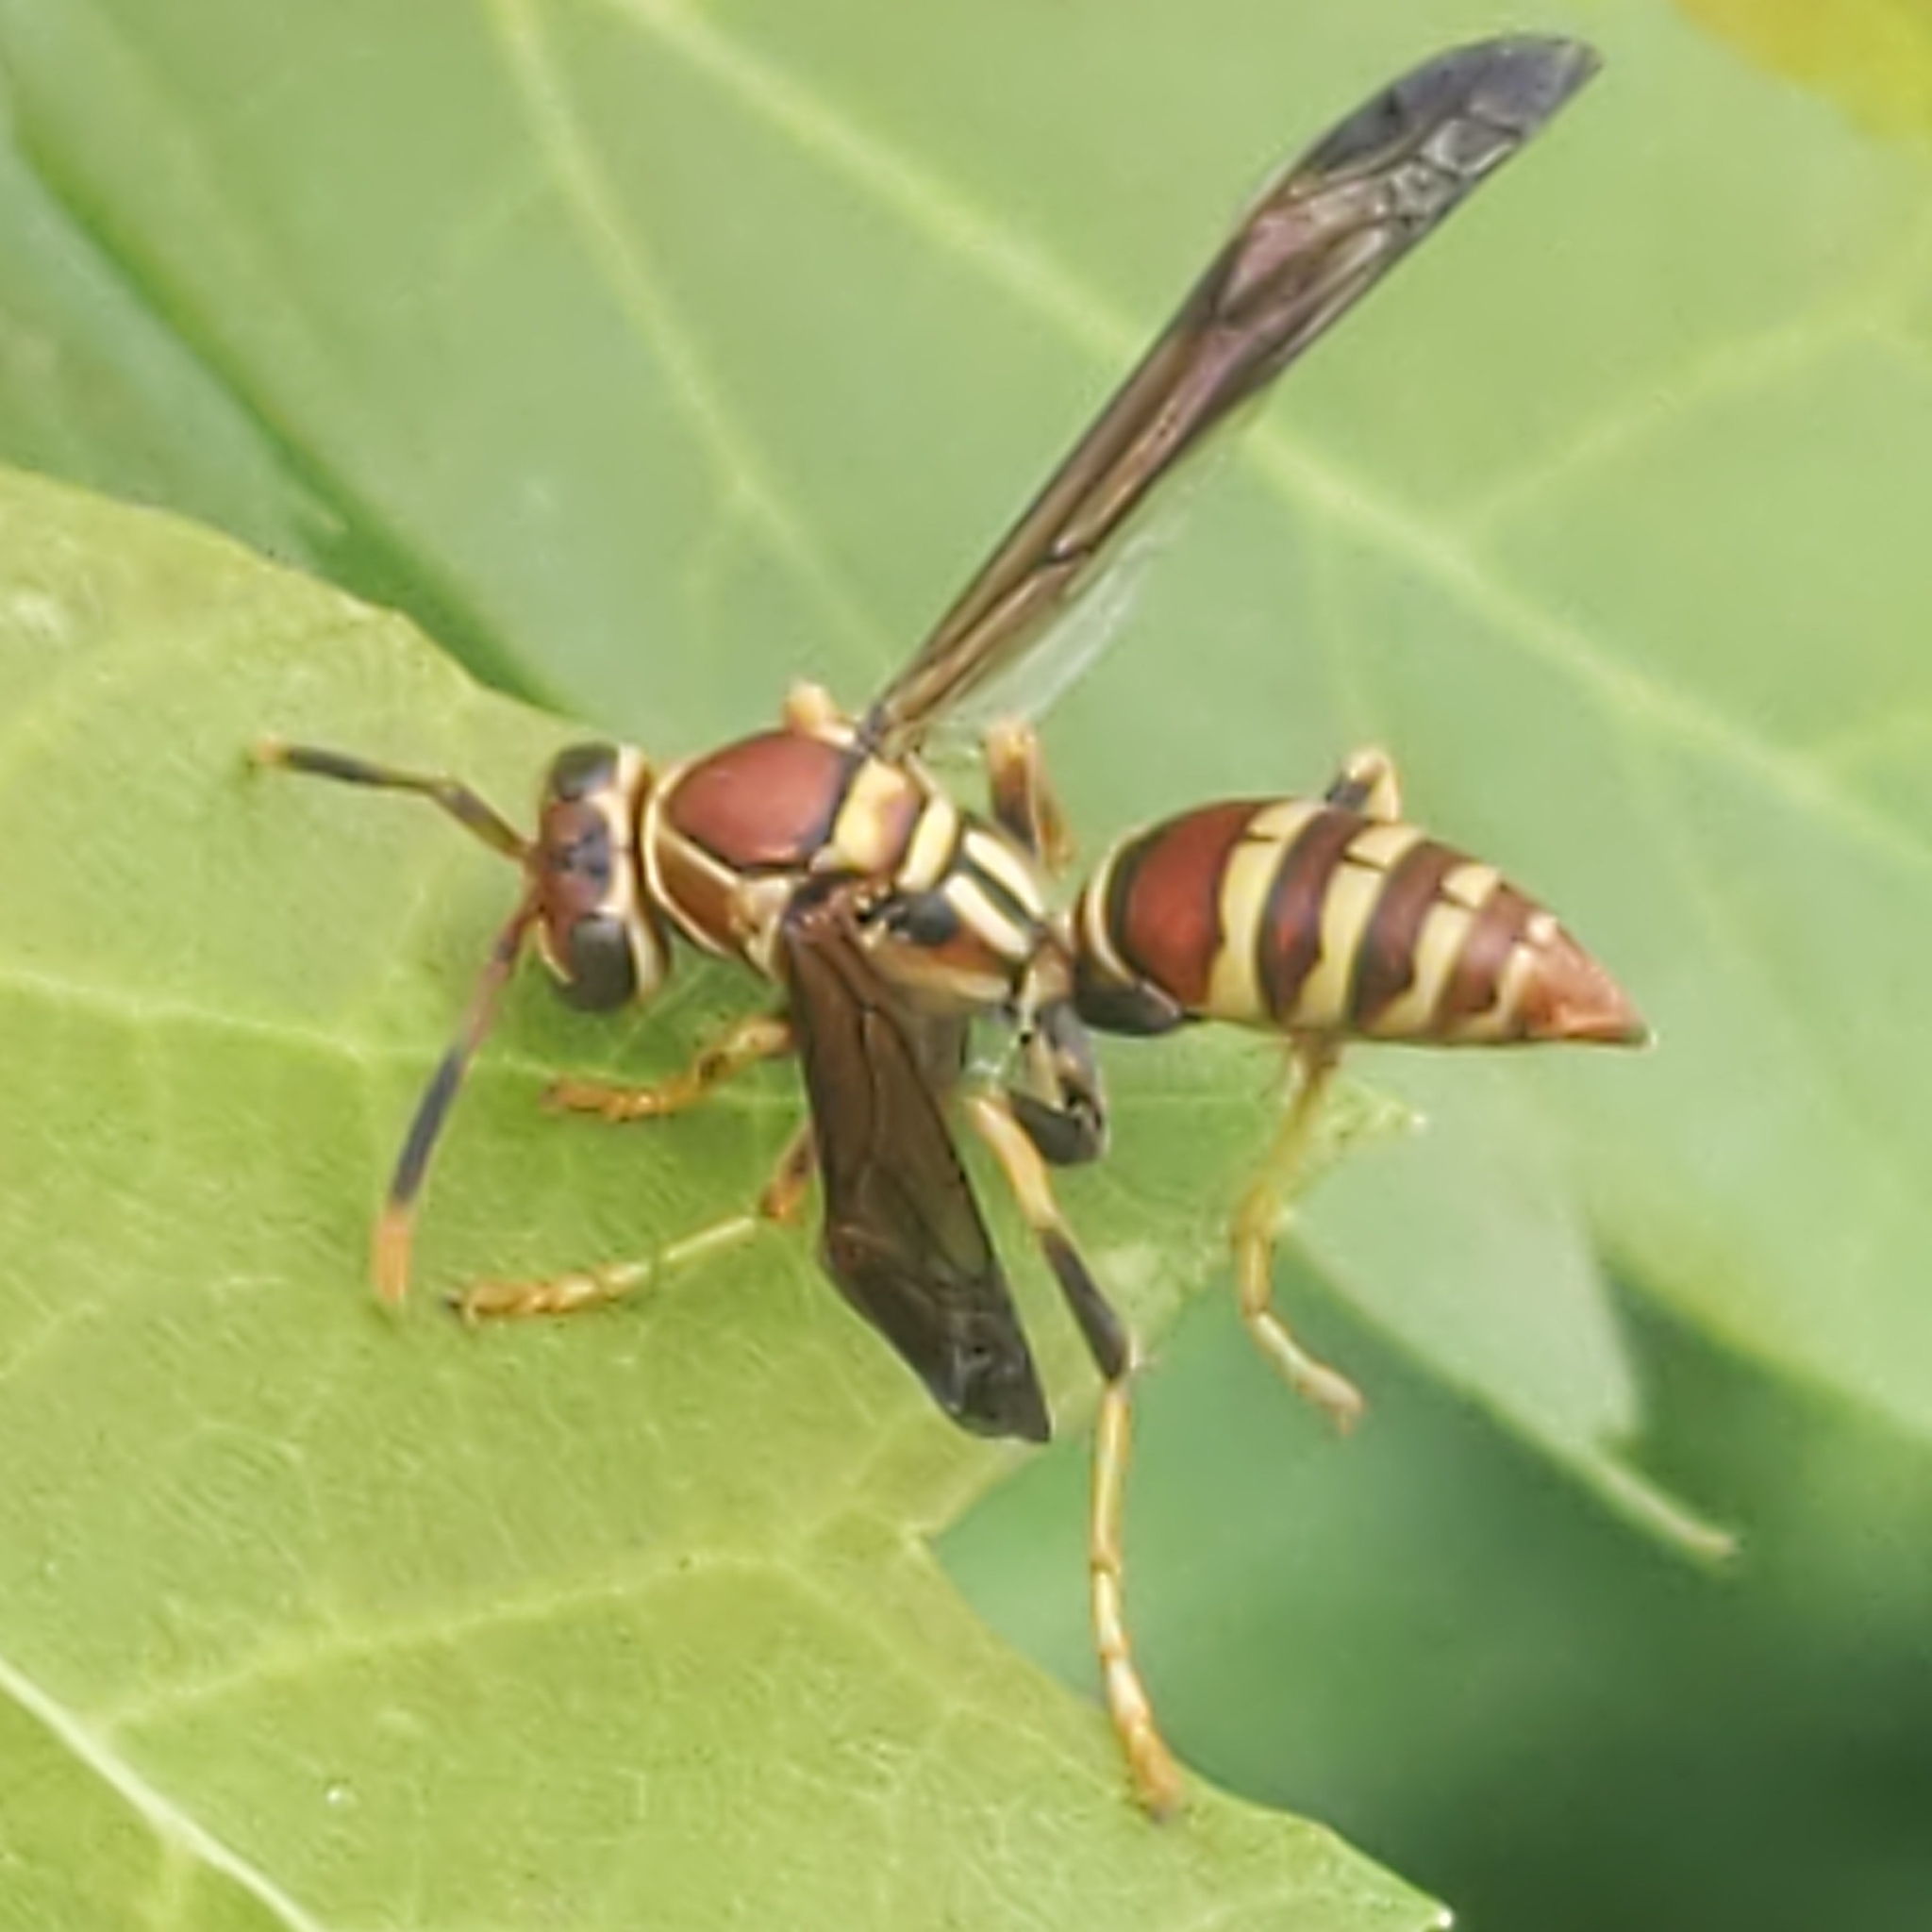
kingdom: Animalia
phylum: Arthropoda
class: Insecta
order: Hymenoptera
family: Eumenidae
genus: Polistes
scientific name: Polistes exclamans
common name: Paper wasp
